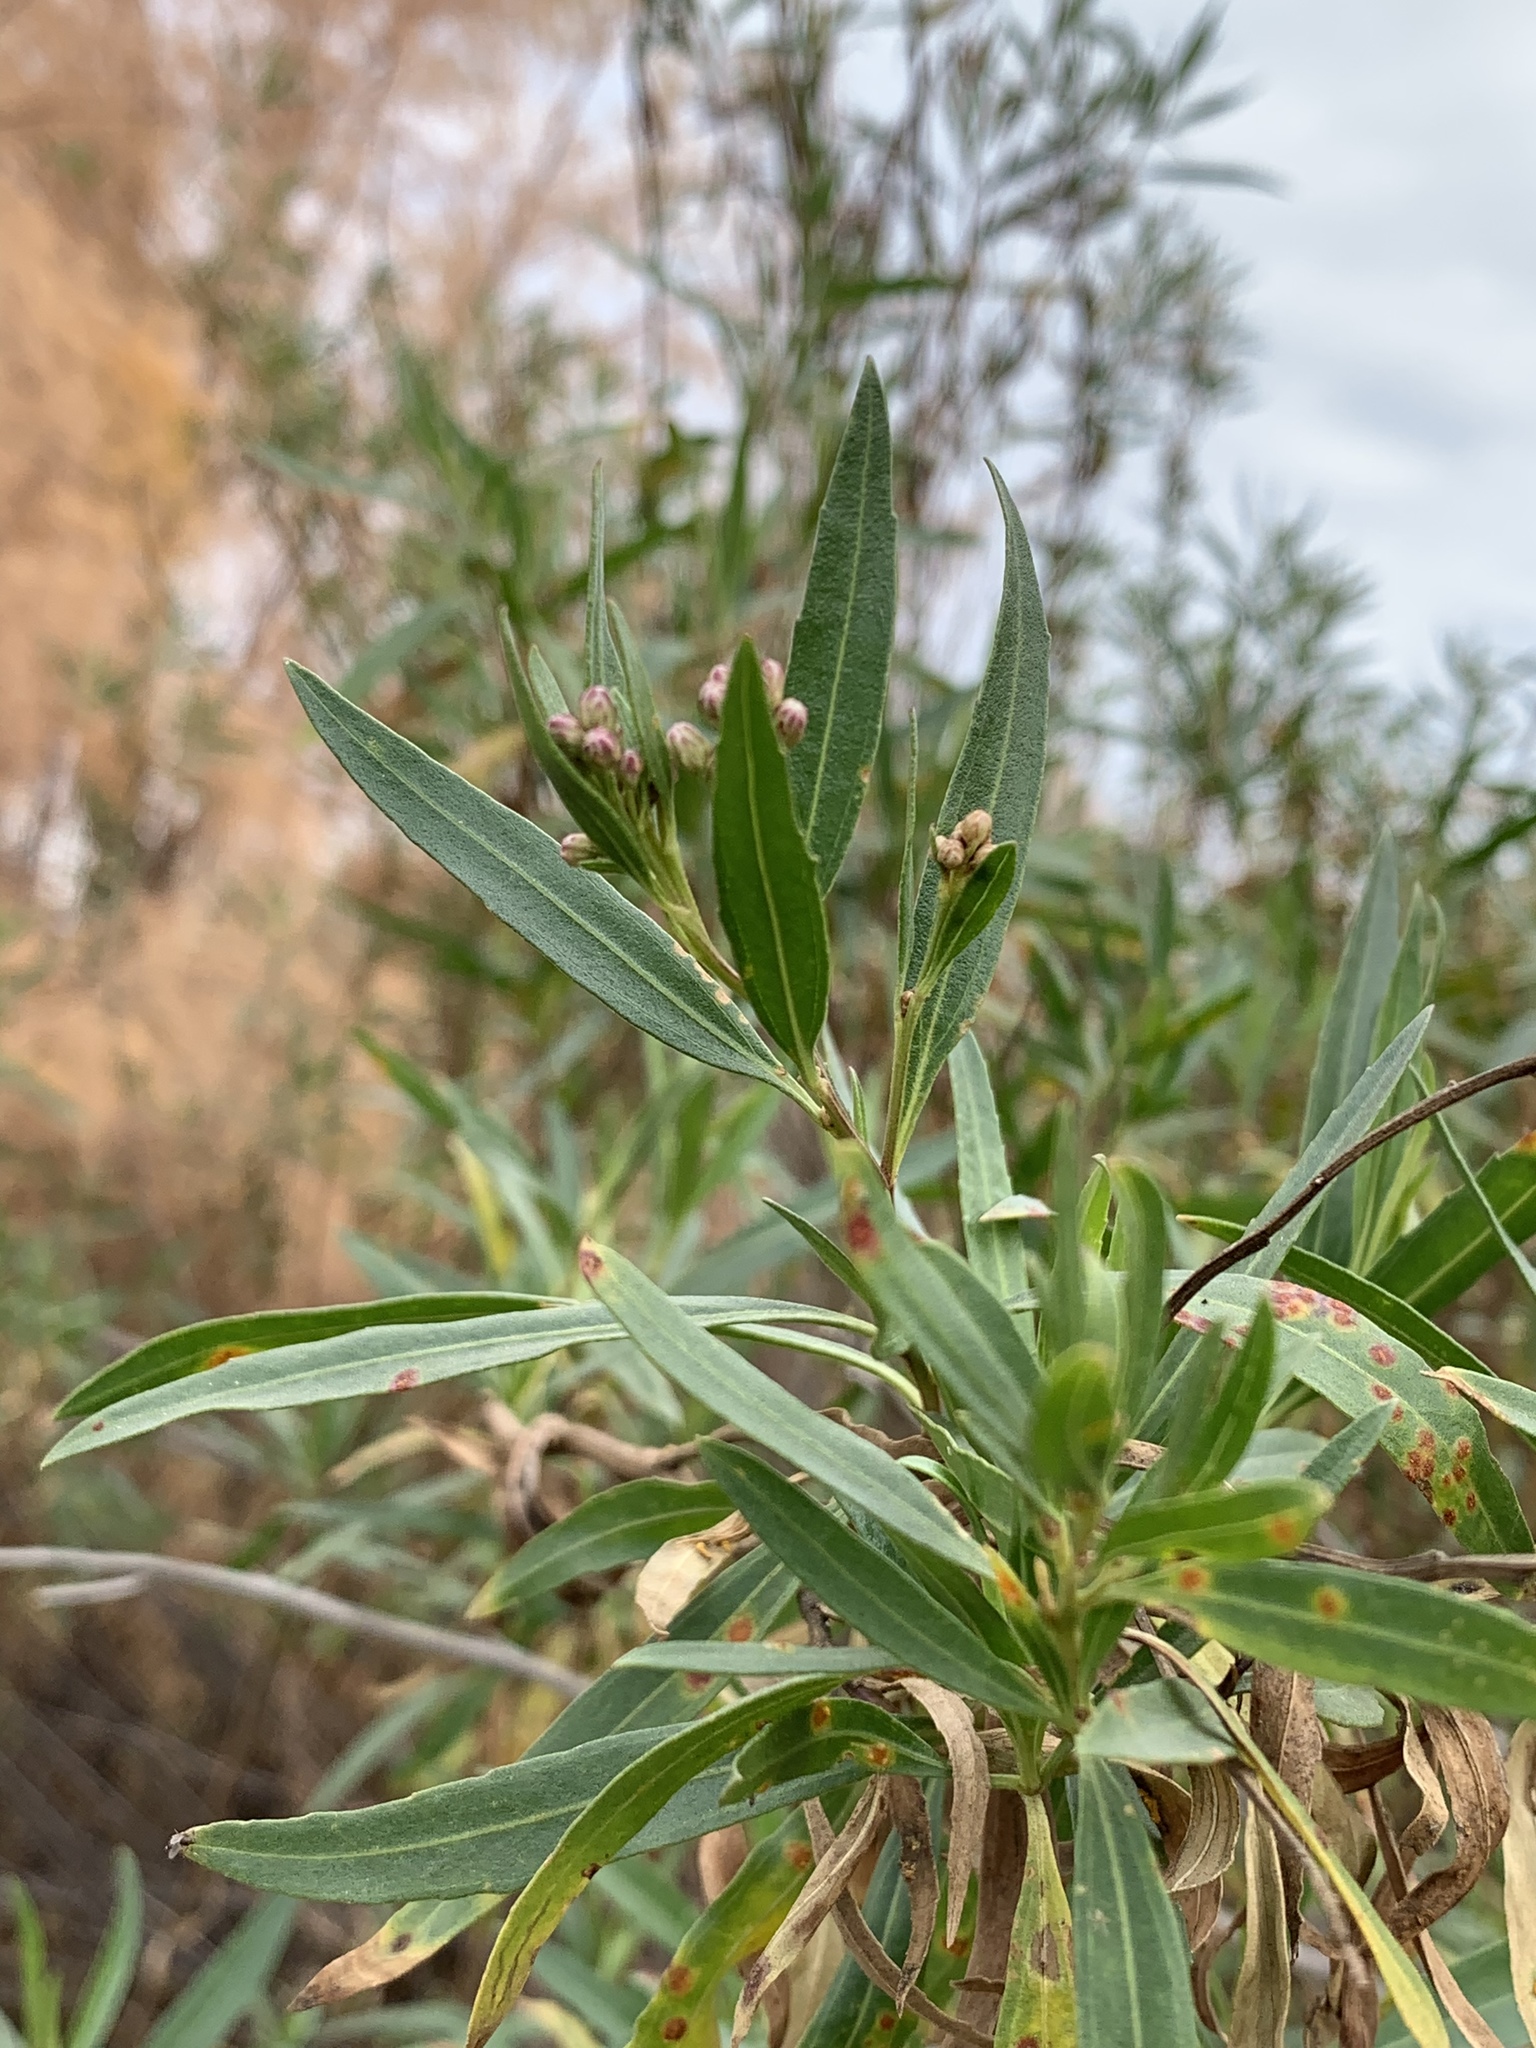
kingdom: Plantae
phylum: Tracheophyta
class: Magnoliopsida
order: Asterales
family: Asteraceae
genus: Baccharis
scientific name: Baccharis salicifolia
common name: Sticky baccharis
